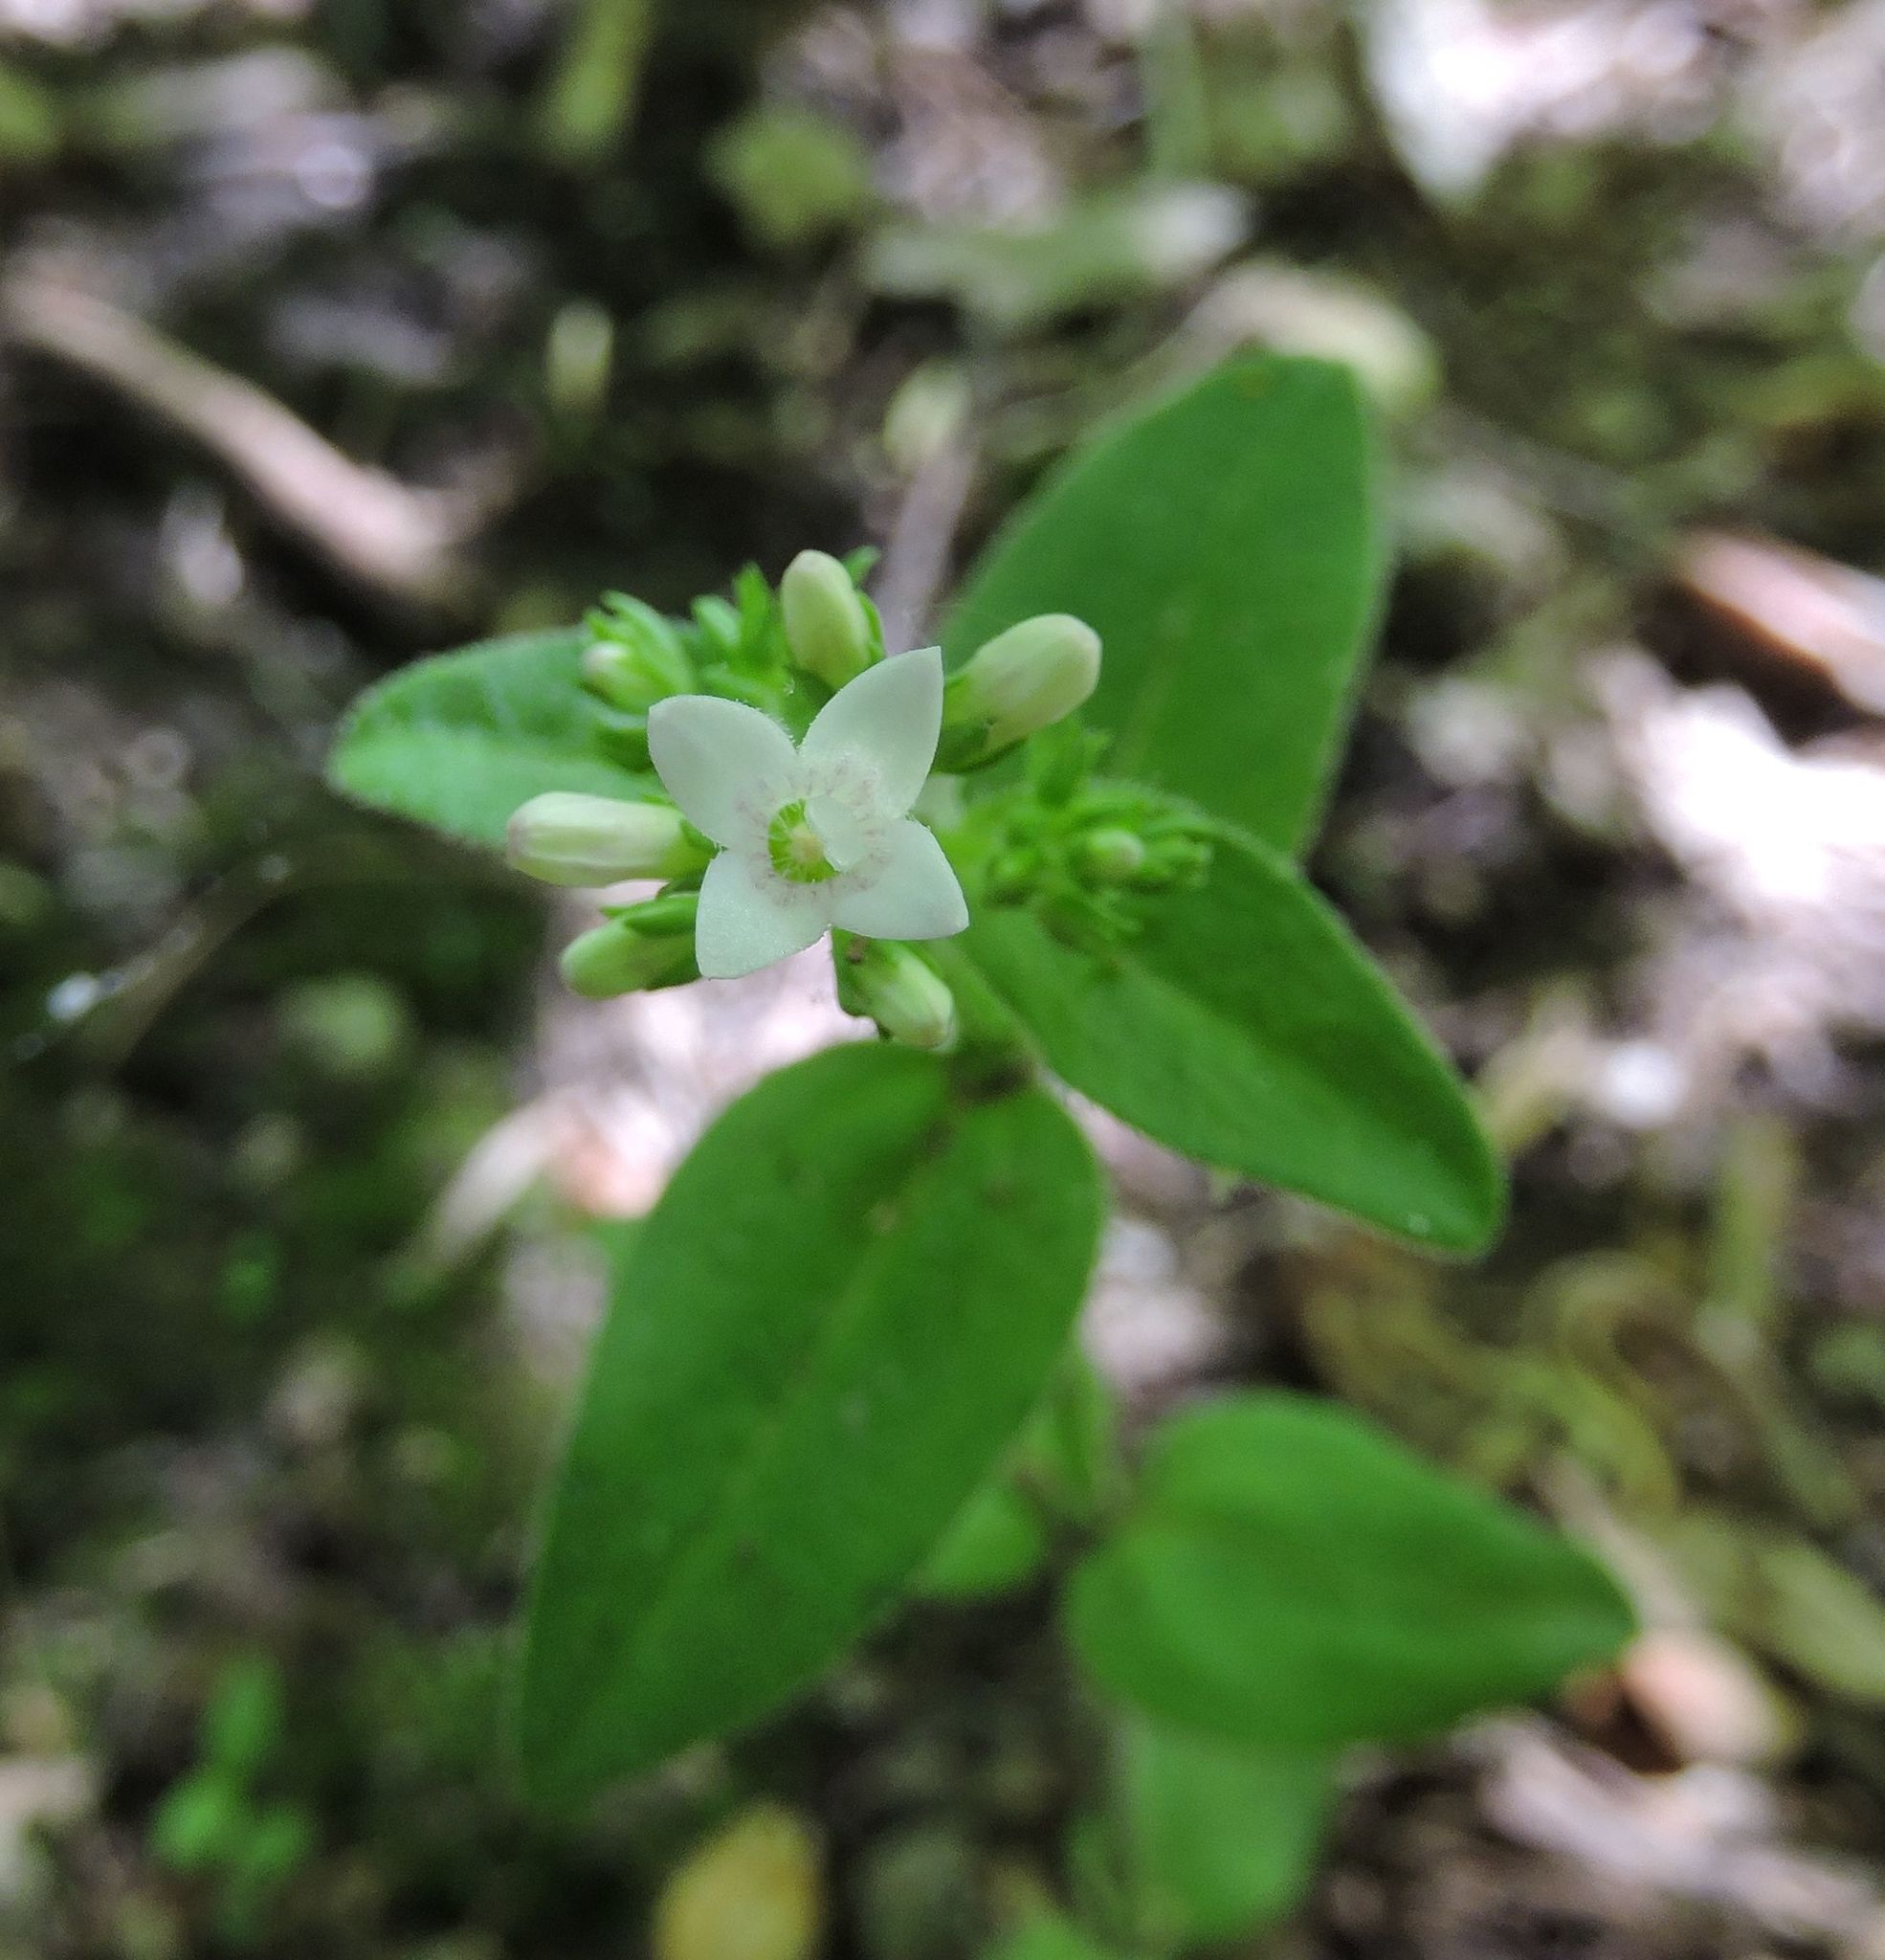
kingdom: Plantae
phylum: Tracheophyta
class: Magnoliopsida
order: Gentianales
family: Rubiaceae
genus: Houstonia
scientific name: Houstonia purpurea
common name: Summer bluet
